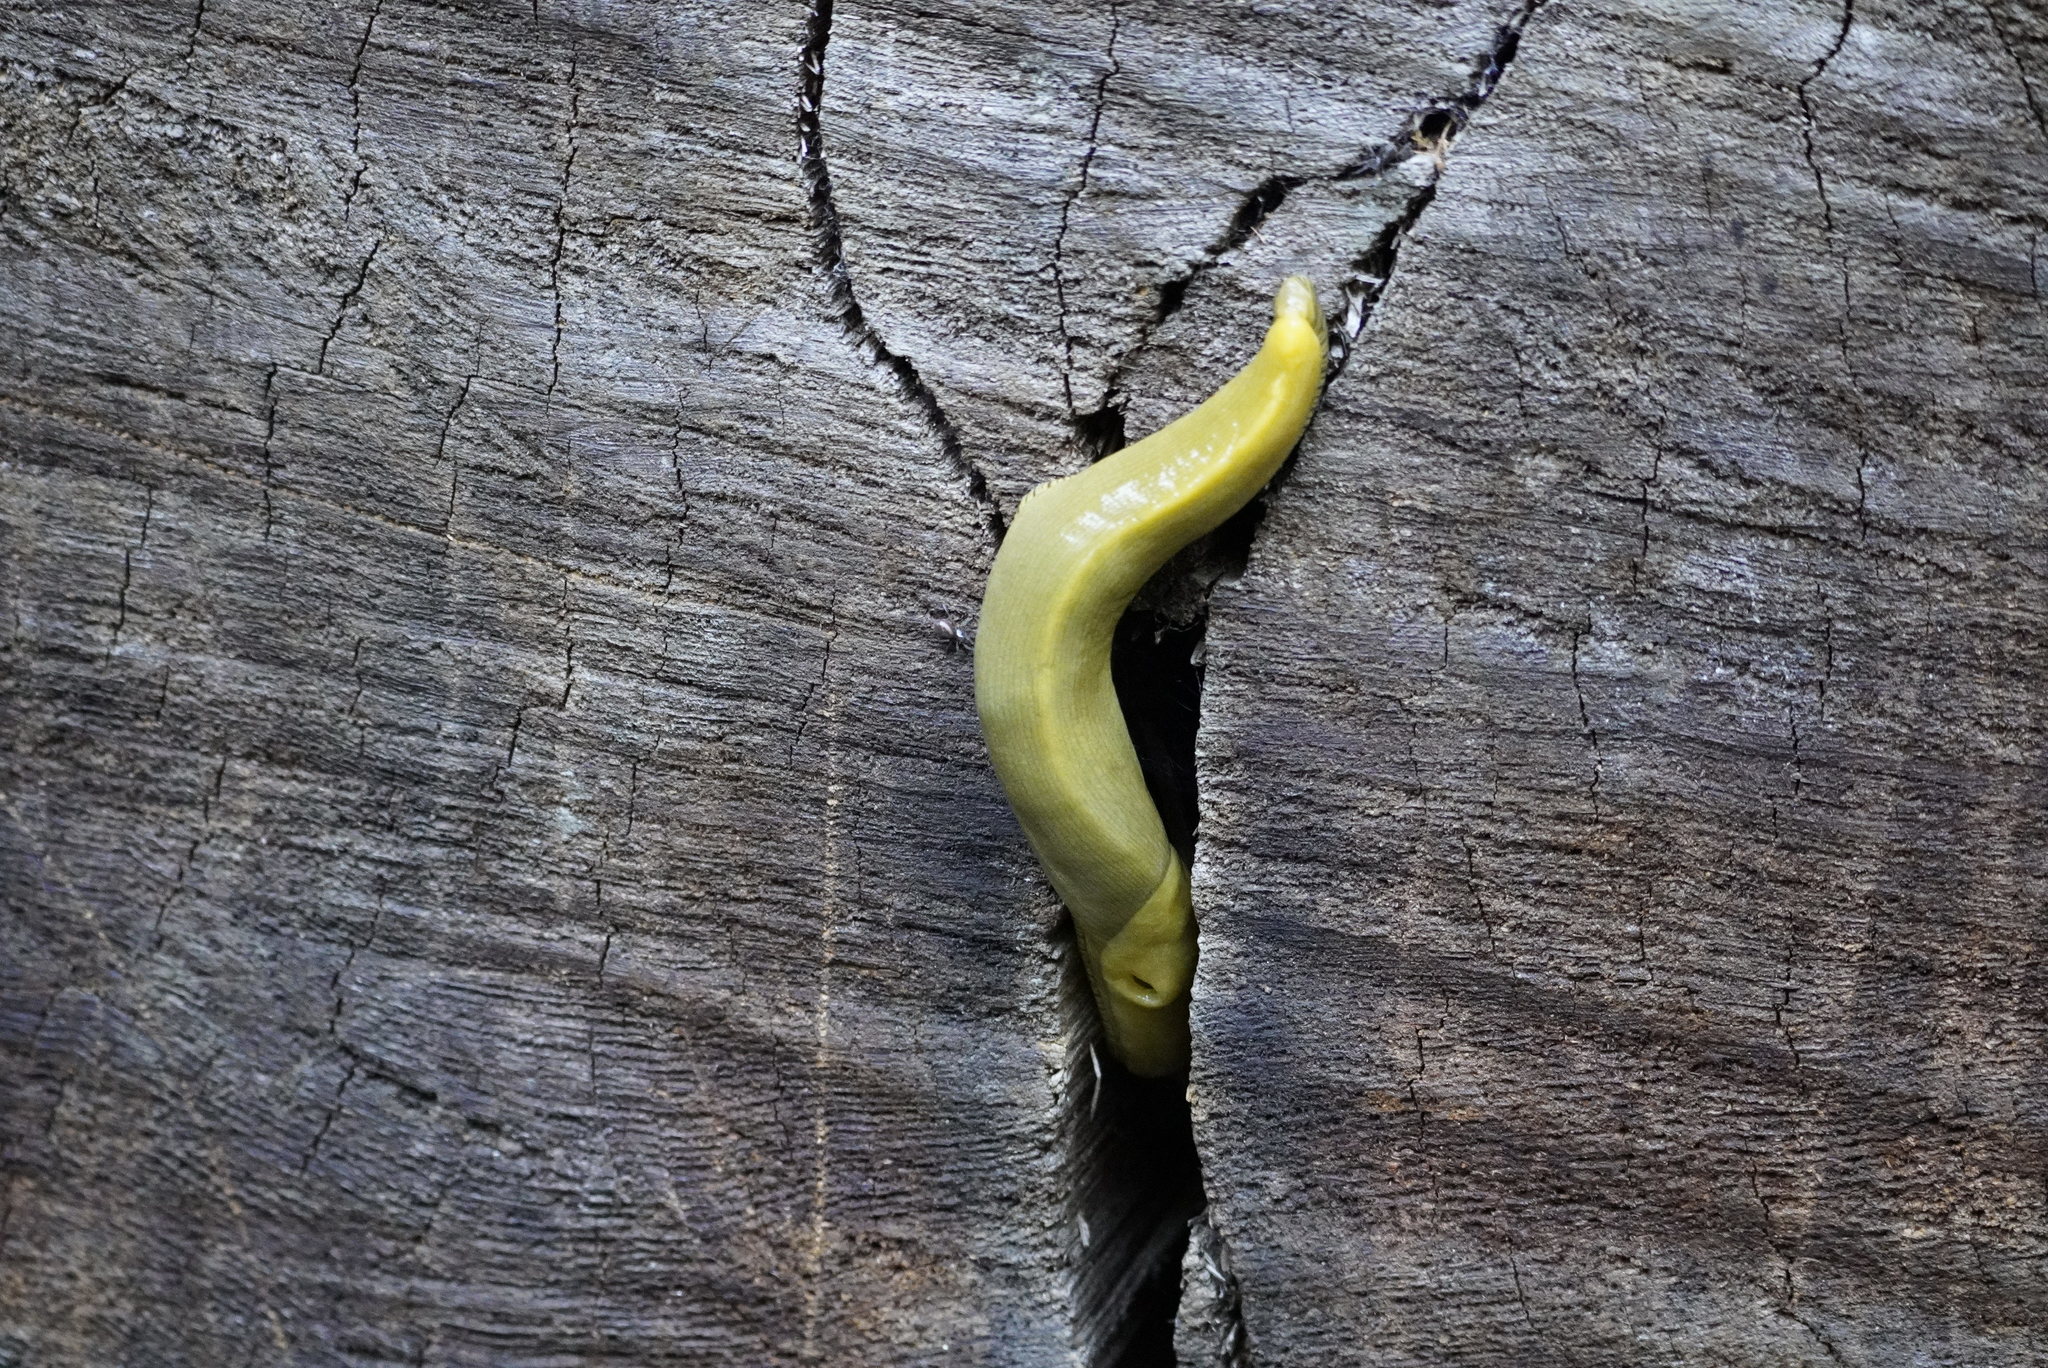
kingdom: Animalia
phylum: Mollusca
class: Gastropoda
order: Stylommatophora
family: Ariolimacidae
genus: Ariolimax
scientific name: Ariolimax columbianus
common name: Pacific banana slug
